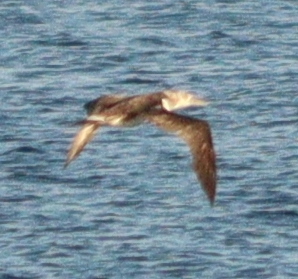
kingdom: Animalia
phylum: Chordata
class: Aves
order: Suliformes
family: Sulidae
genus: Morus
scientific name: Morus bassanus
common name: Northern gannet
